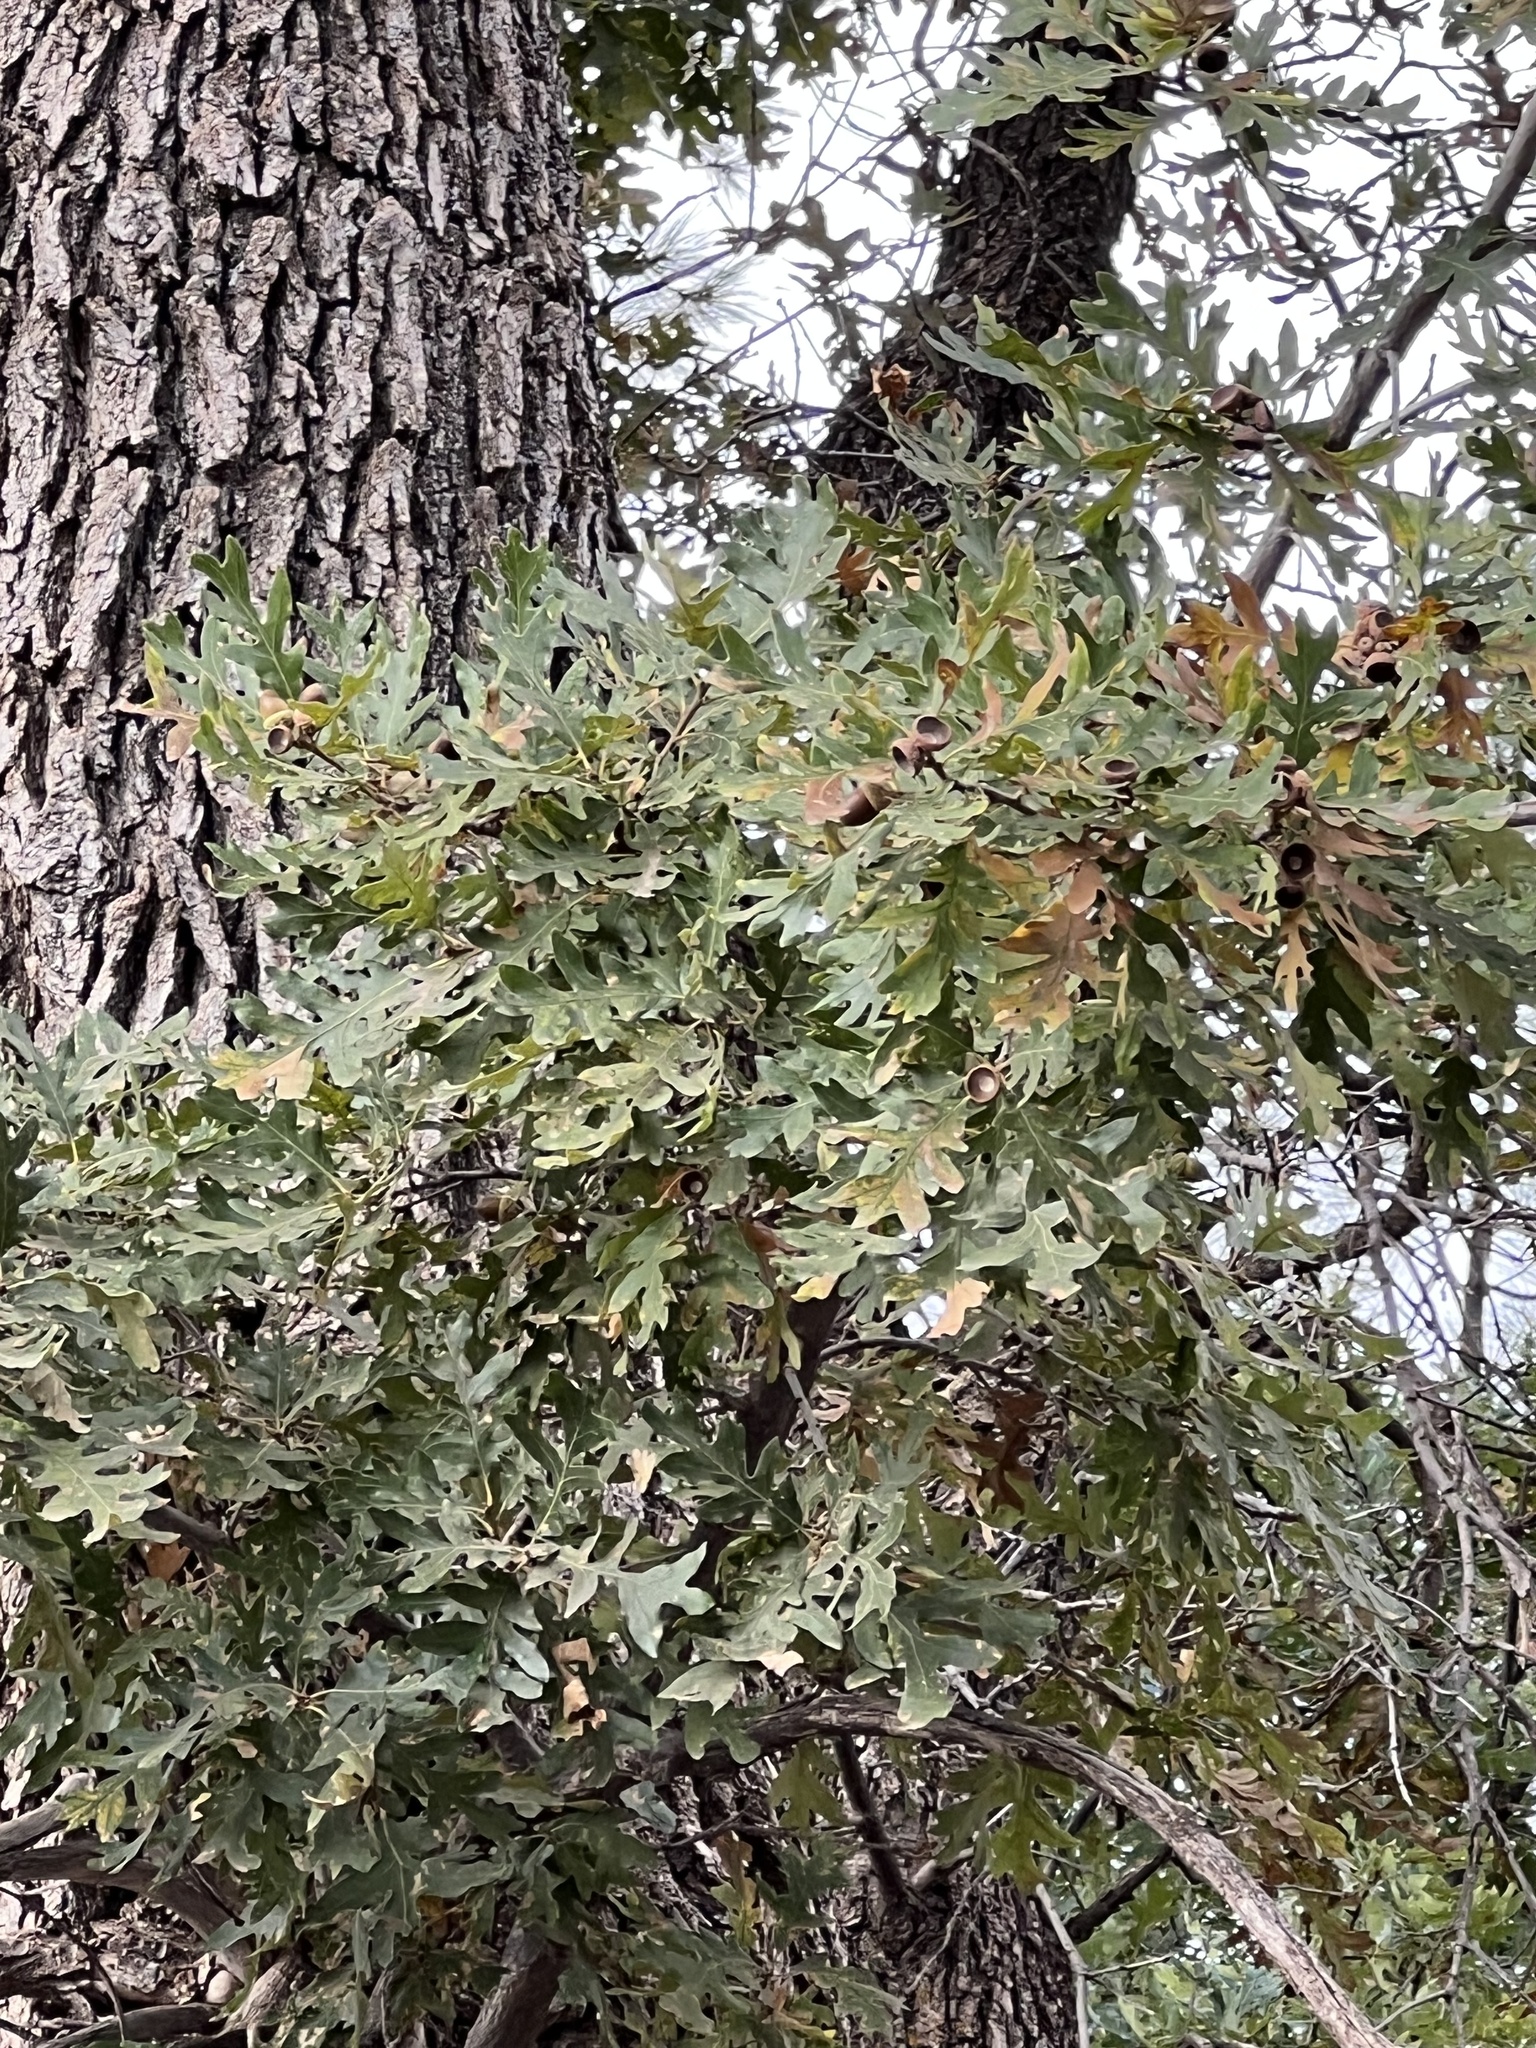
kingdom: Plantae
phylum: Tracheophyta
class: Magnoliopsida
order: Fagales
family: Fagaceae
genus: Quercus
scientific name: Quercus gambelii
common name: Gambel oak
